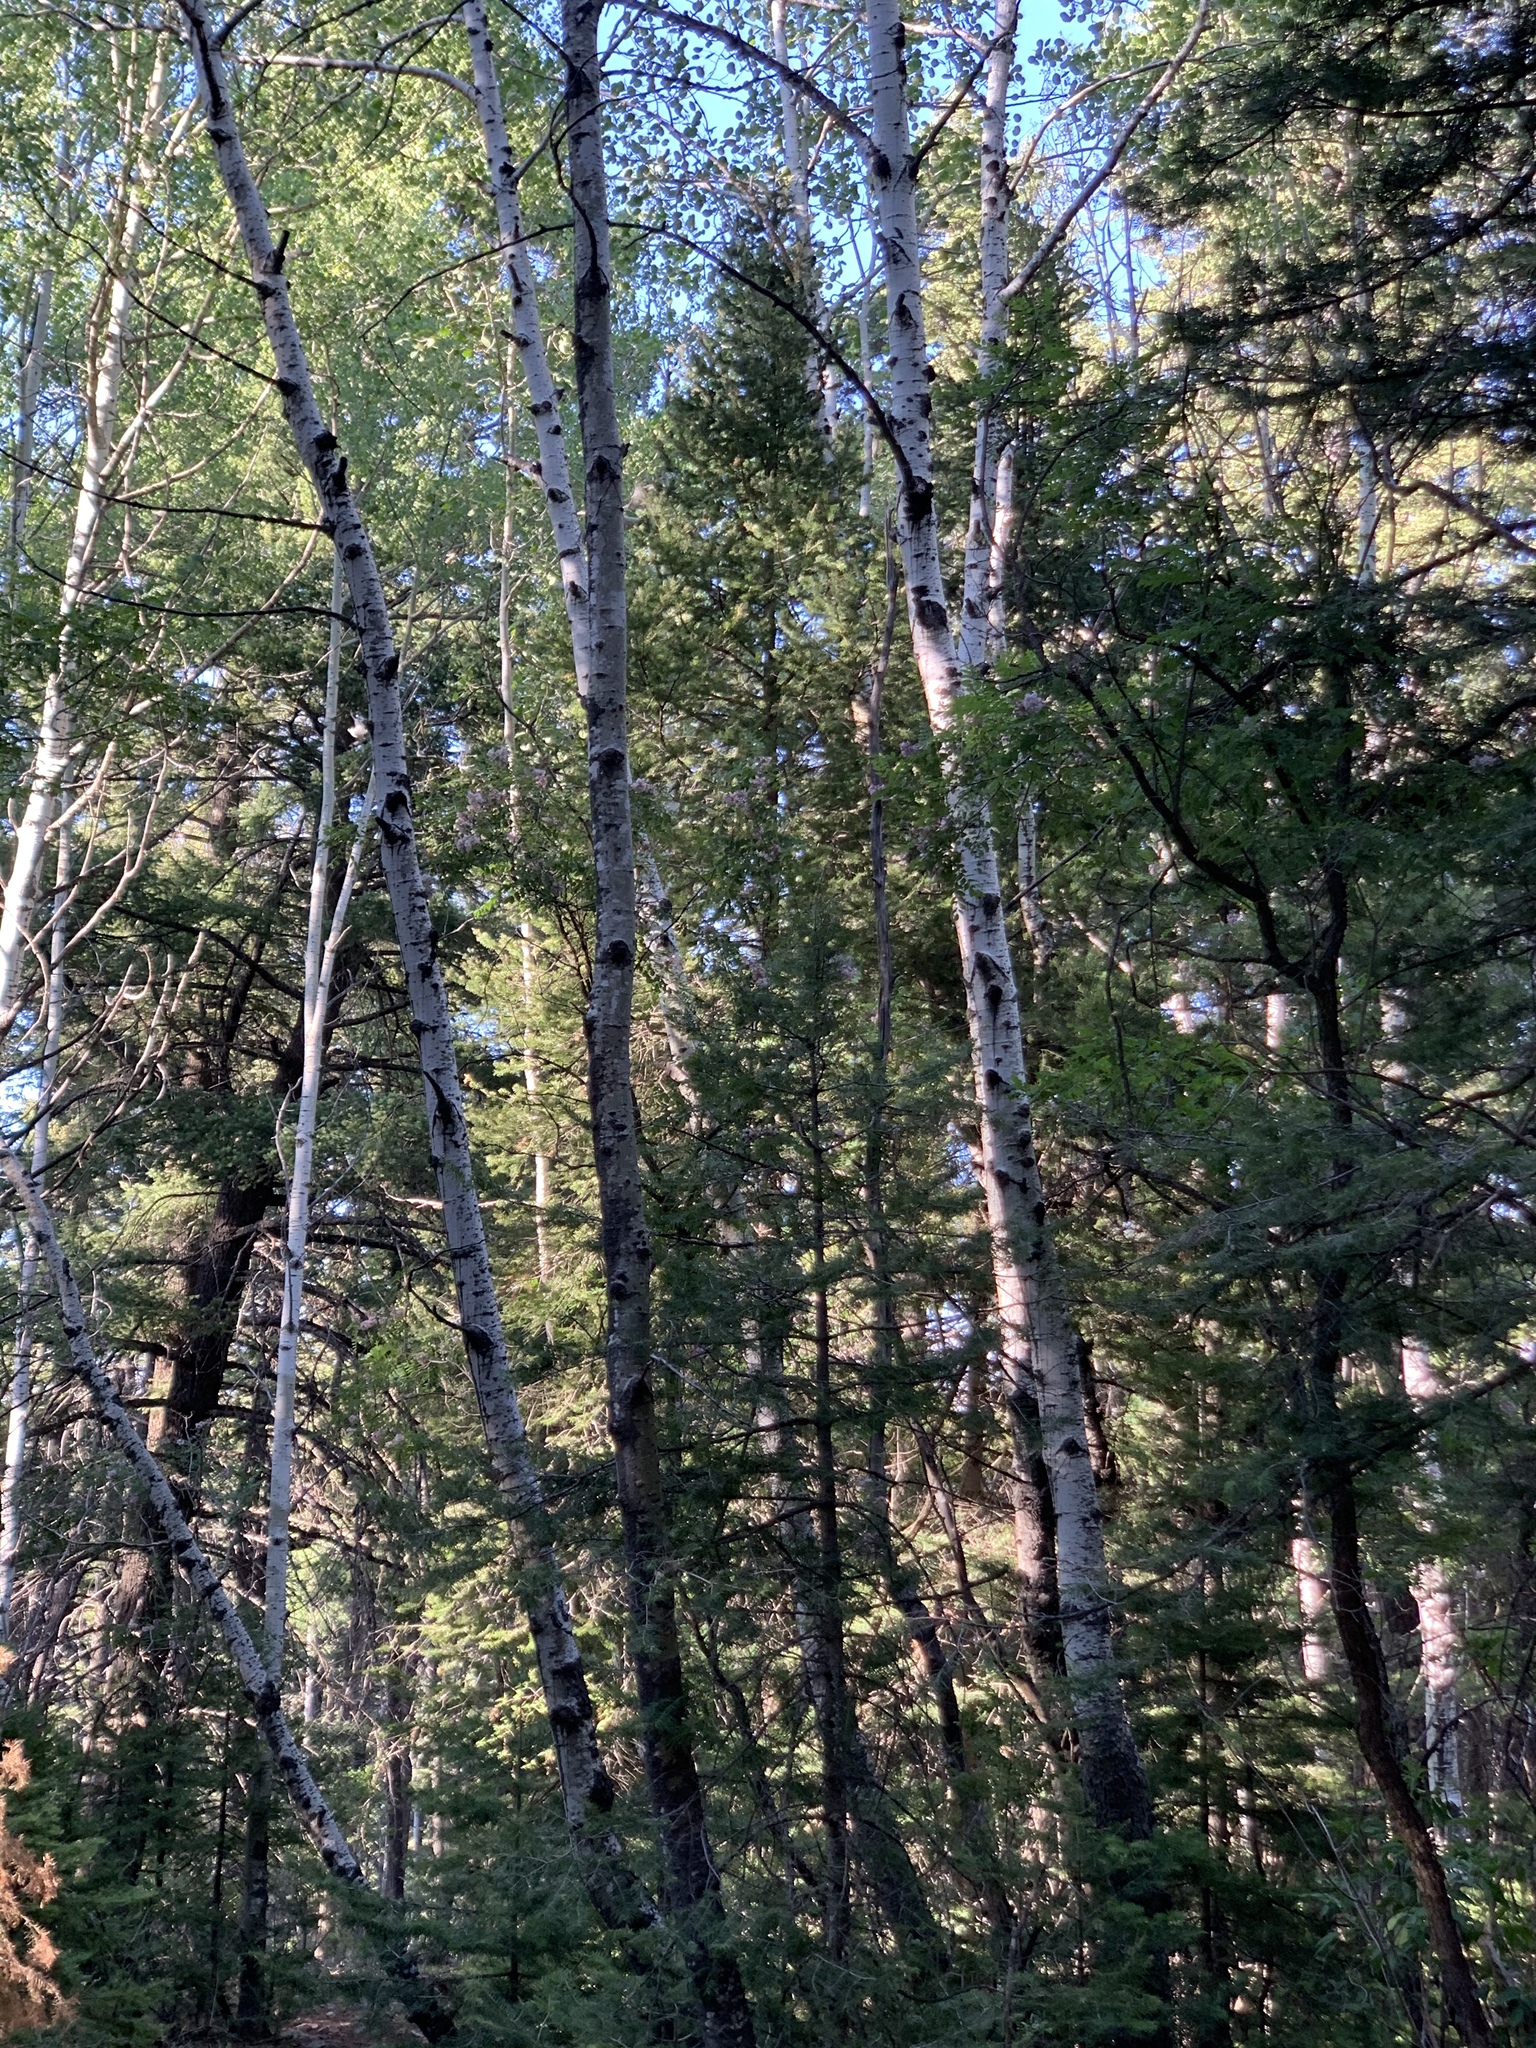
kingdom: Plantae
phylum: Tracheophyta
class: Magnoliopsida
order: Malpighiales
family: Salicaceae
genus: Populus
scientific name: Populus tremuloides
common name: Quaking aspen
